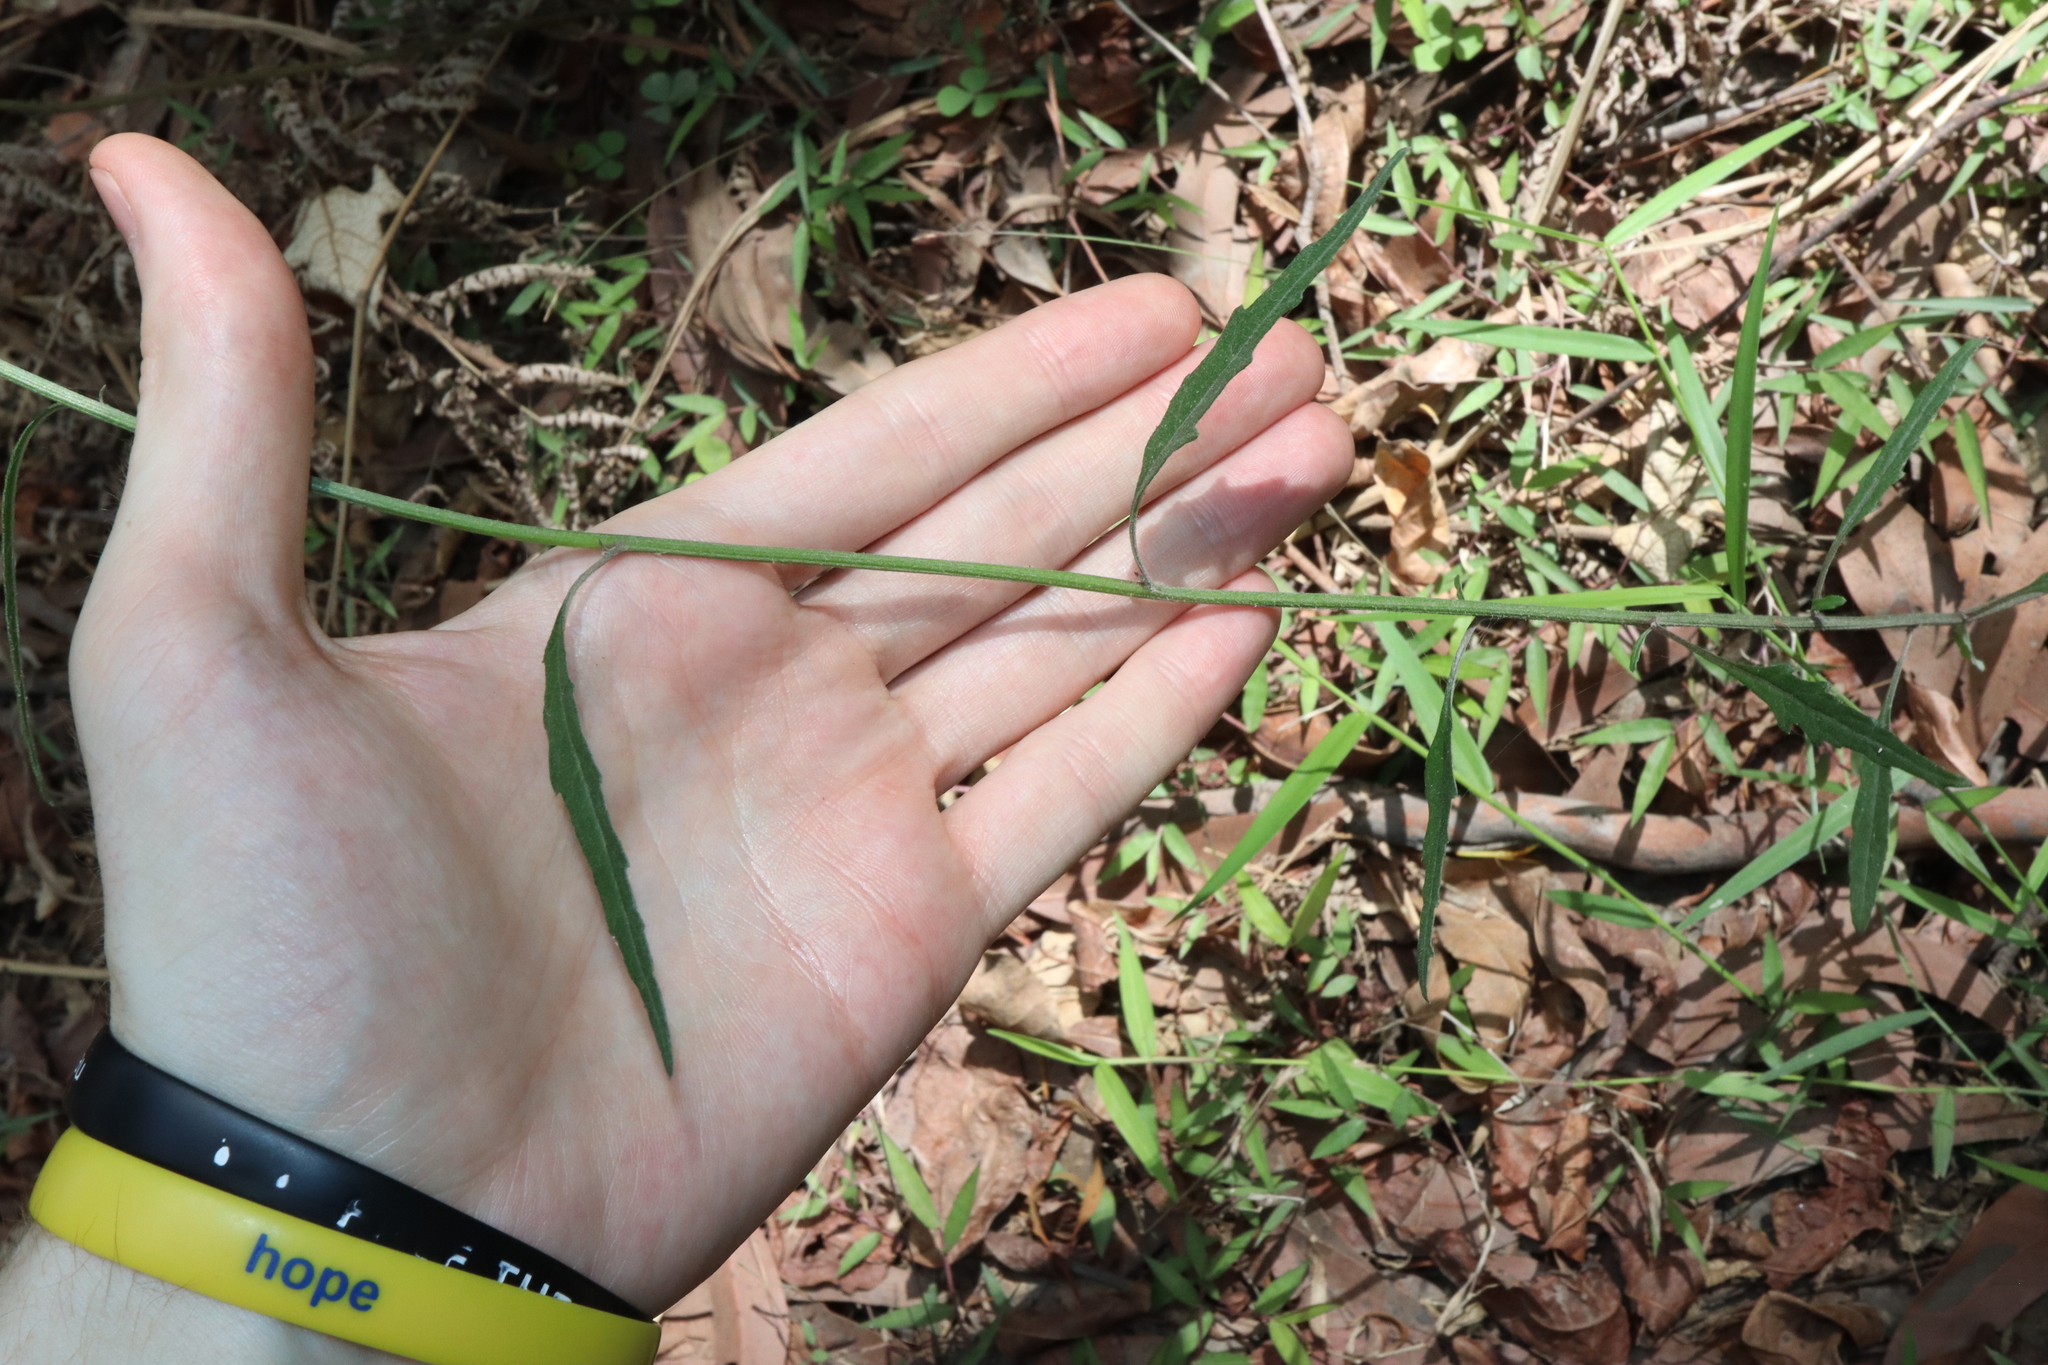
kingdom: Plantae
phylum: Tracheophyta
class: Magnoliopsida
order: Asterales
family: Asteraceae
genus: Cyanthillium
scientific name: Cyanthillium cinereum
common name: Little ironweed
